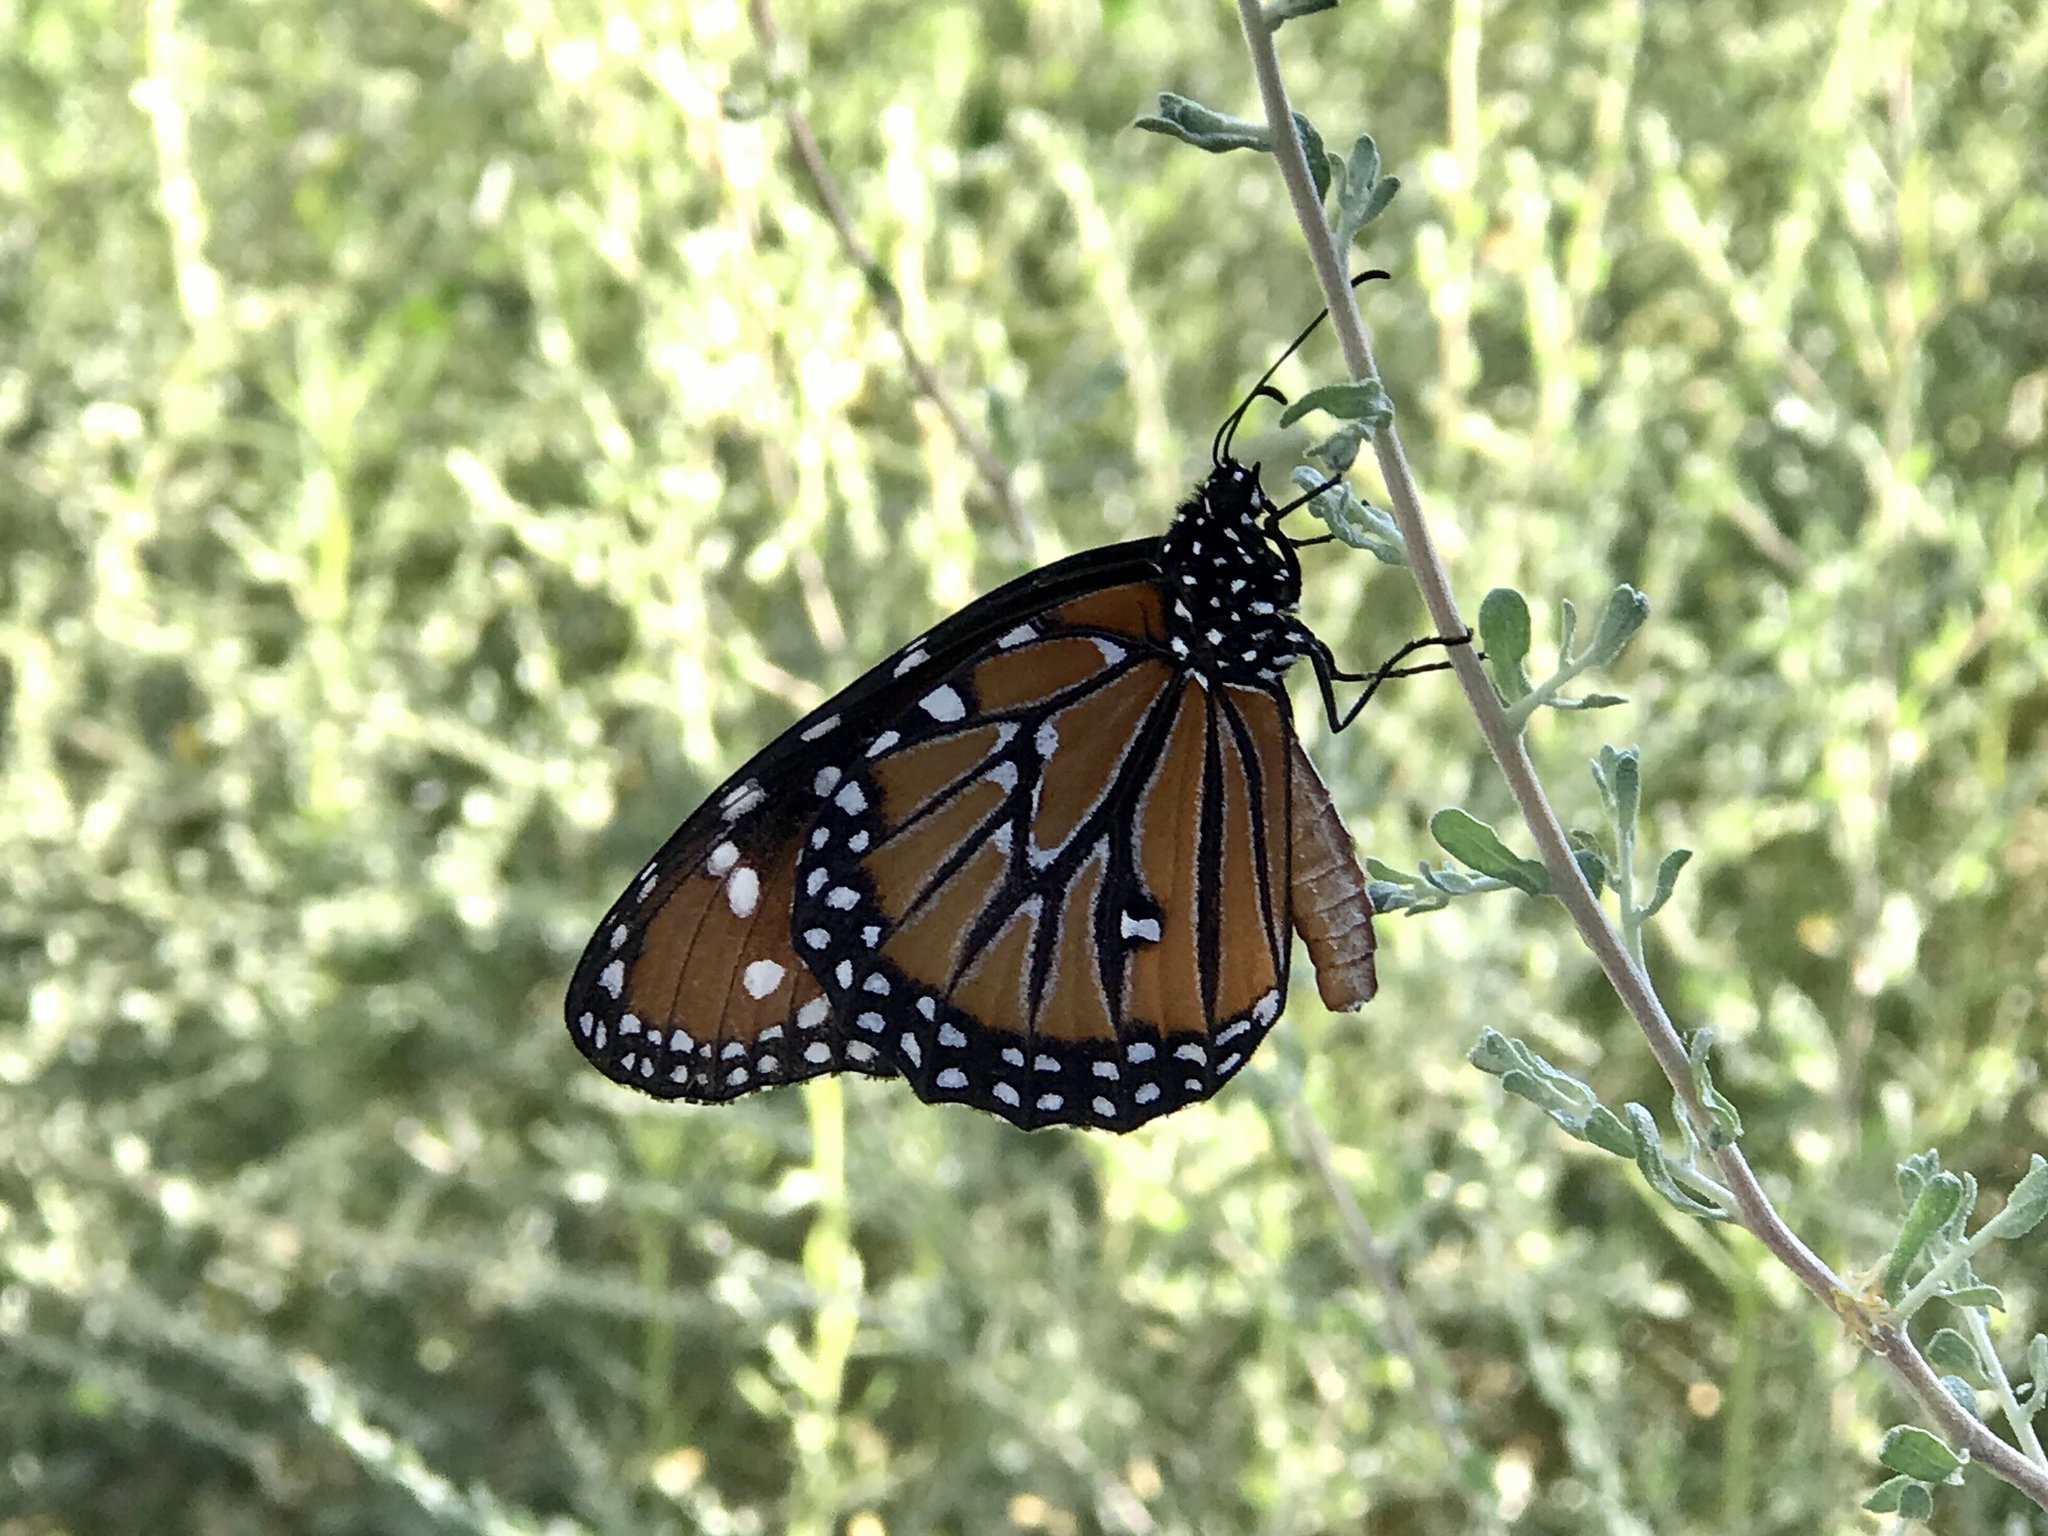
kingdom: Animalia
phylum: Arthropoda
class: Insecta
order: Lepidoptera
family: Nymphalidae
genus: Danaus
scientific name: Danaus gilippus
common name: Queen
